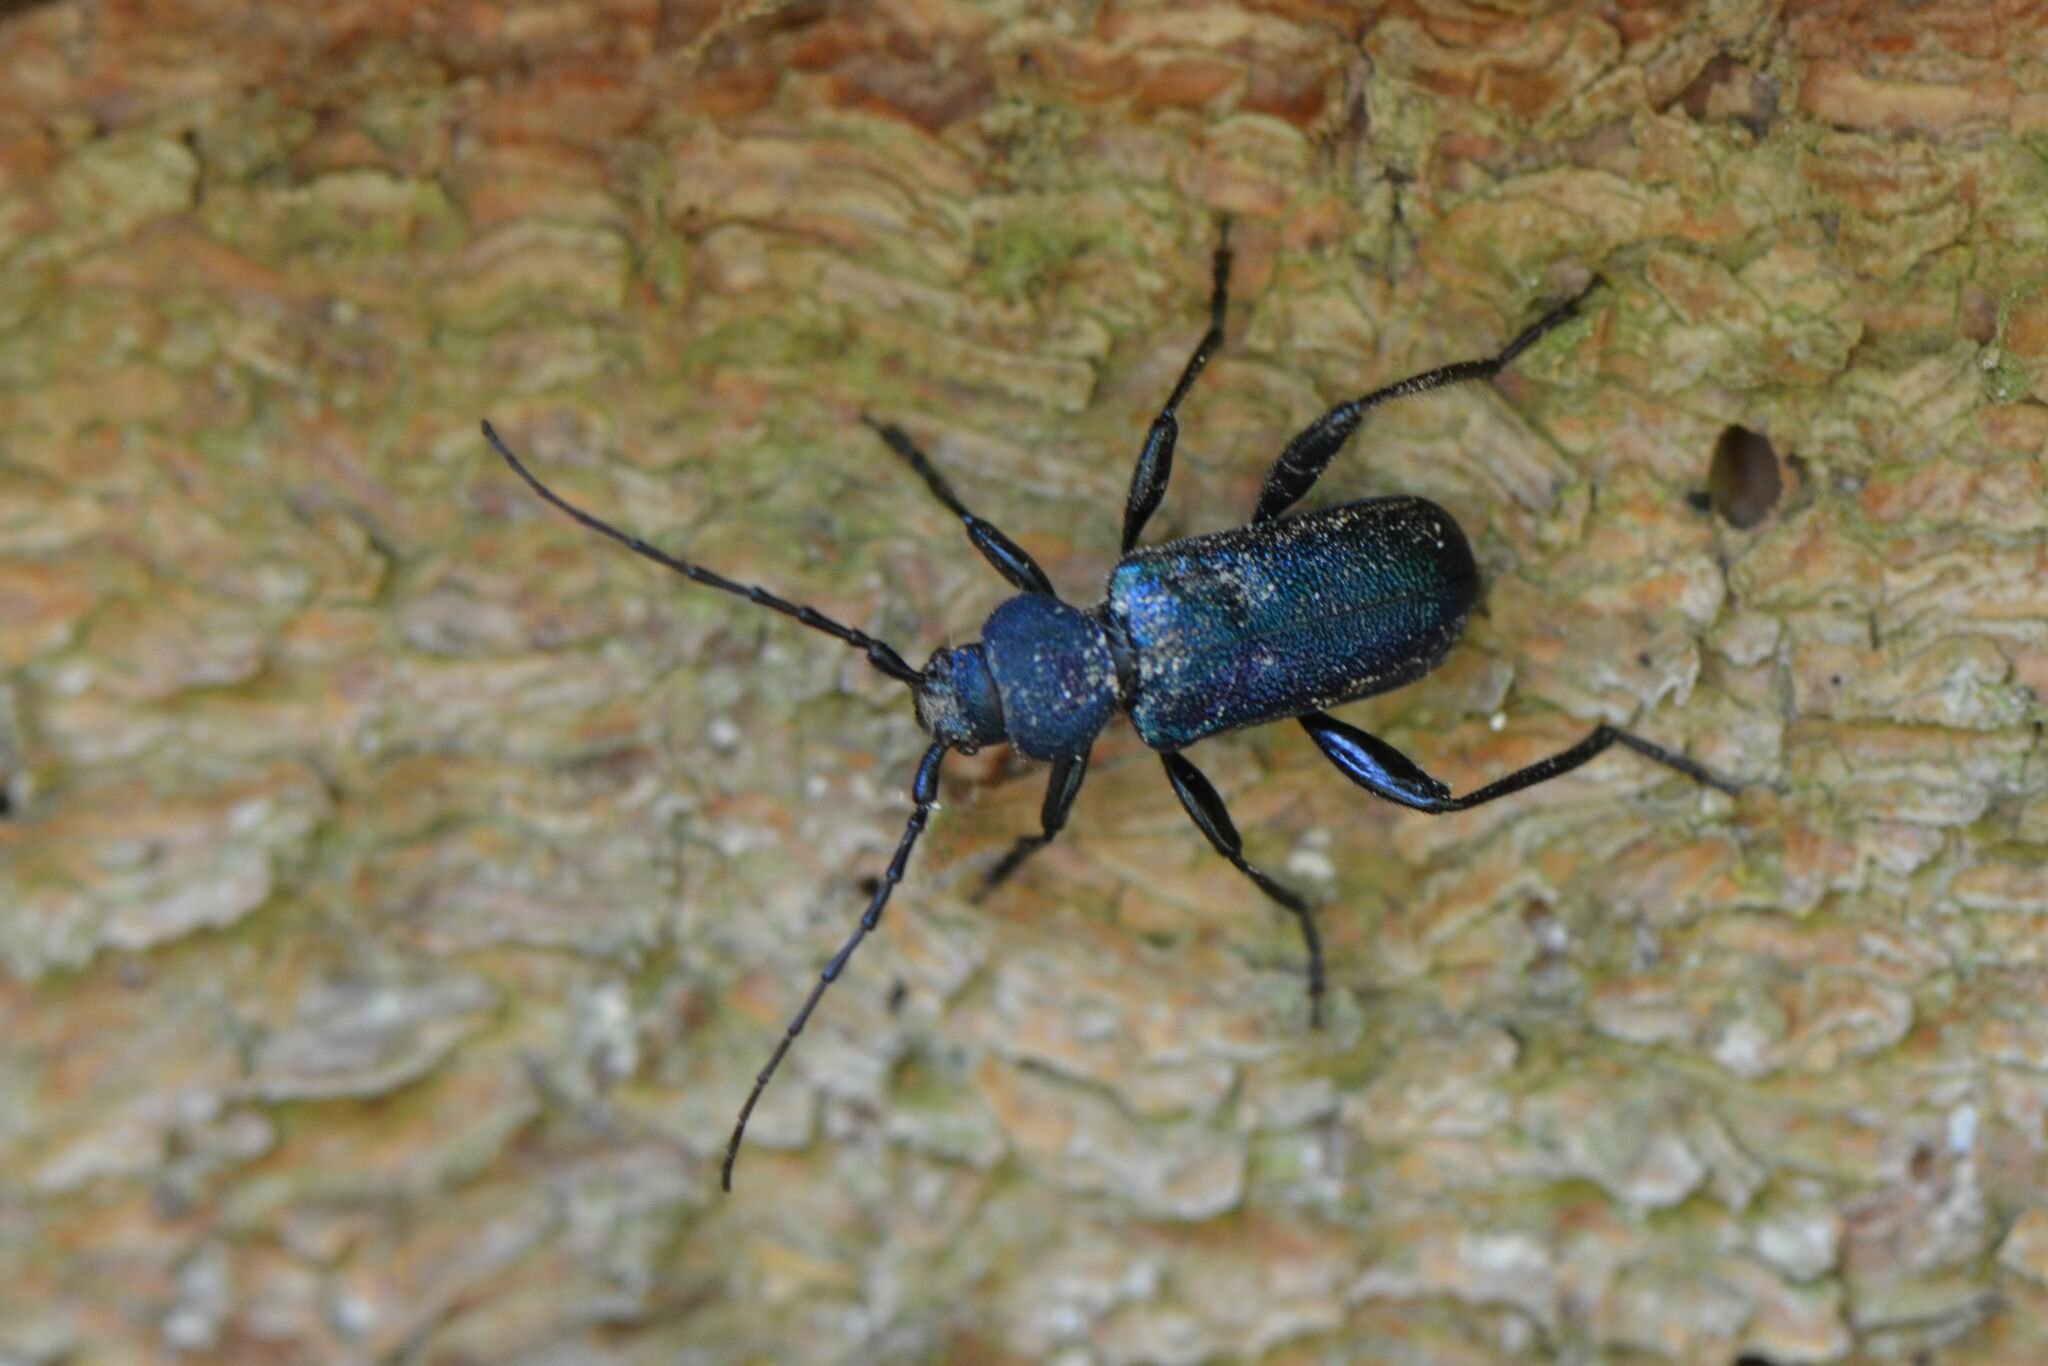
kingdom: Animalia
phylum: Arthropoda
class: Insecta
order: Coleoptera
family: Cerambycidae
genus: Callidium
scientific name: Callidium violaceum
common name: Violet tanbark beetle
